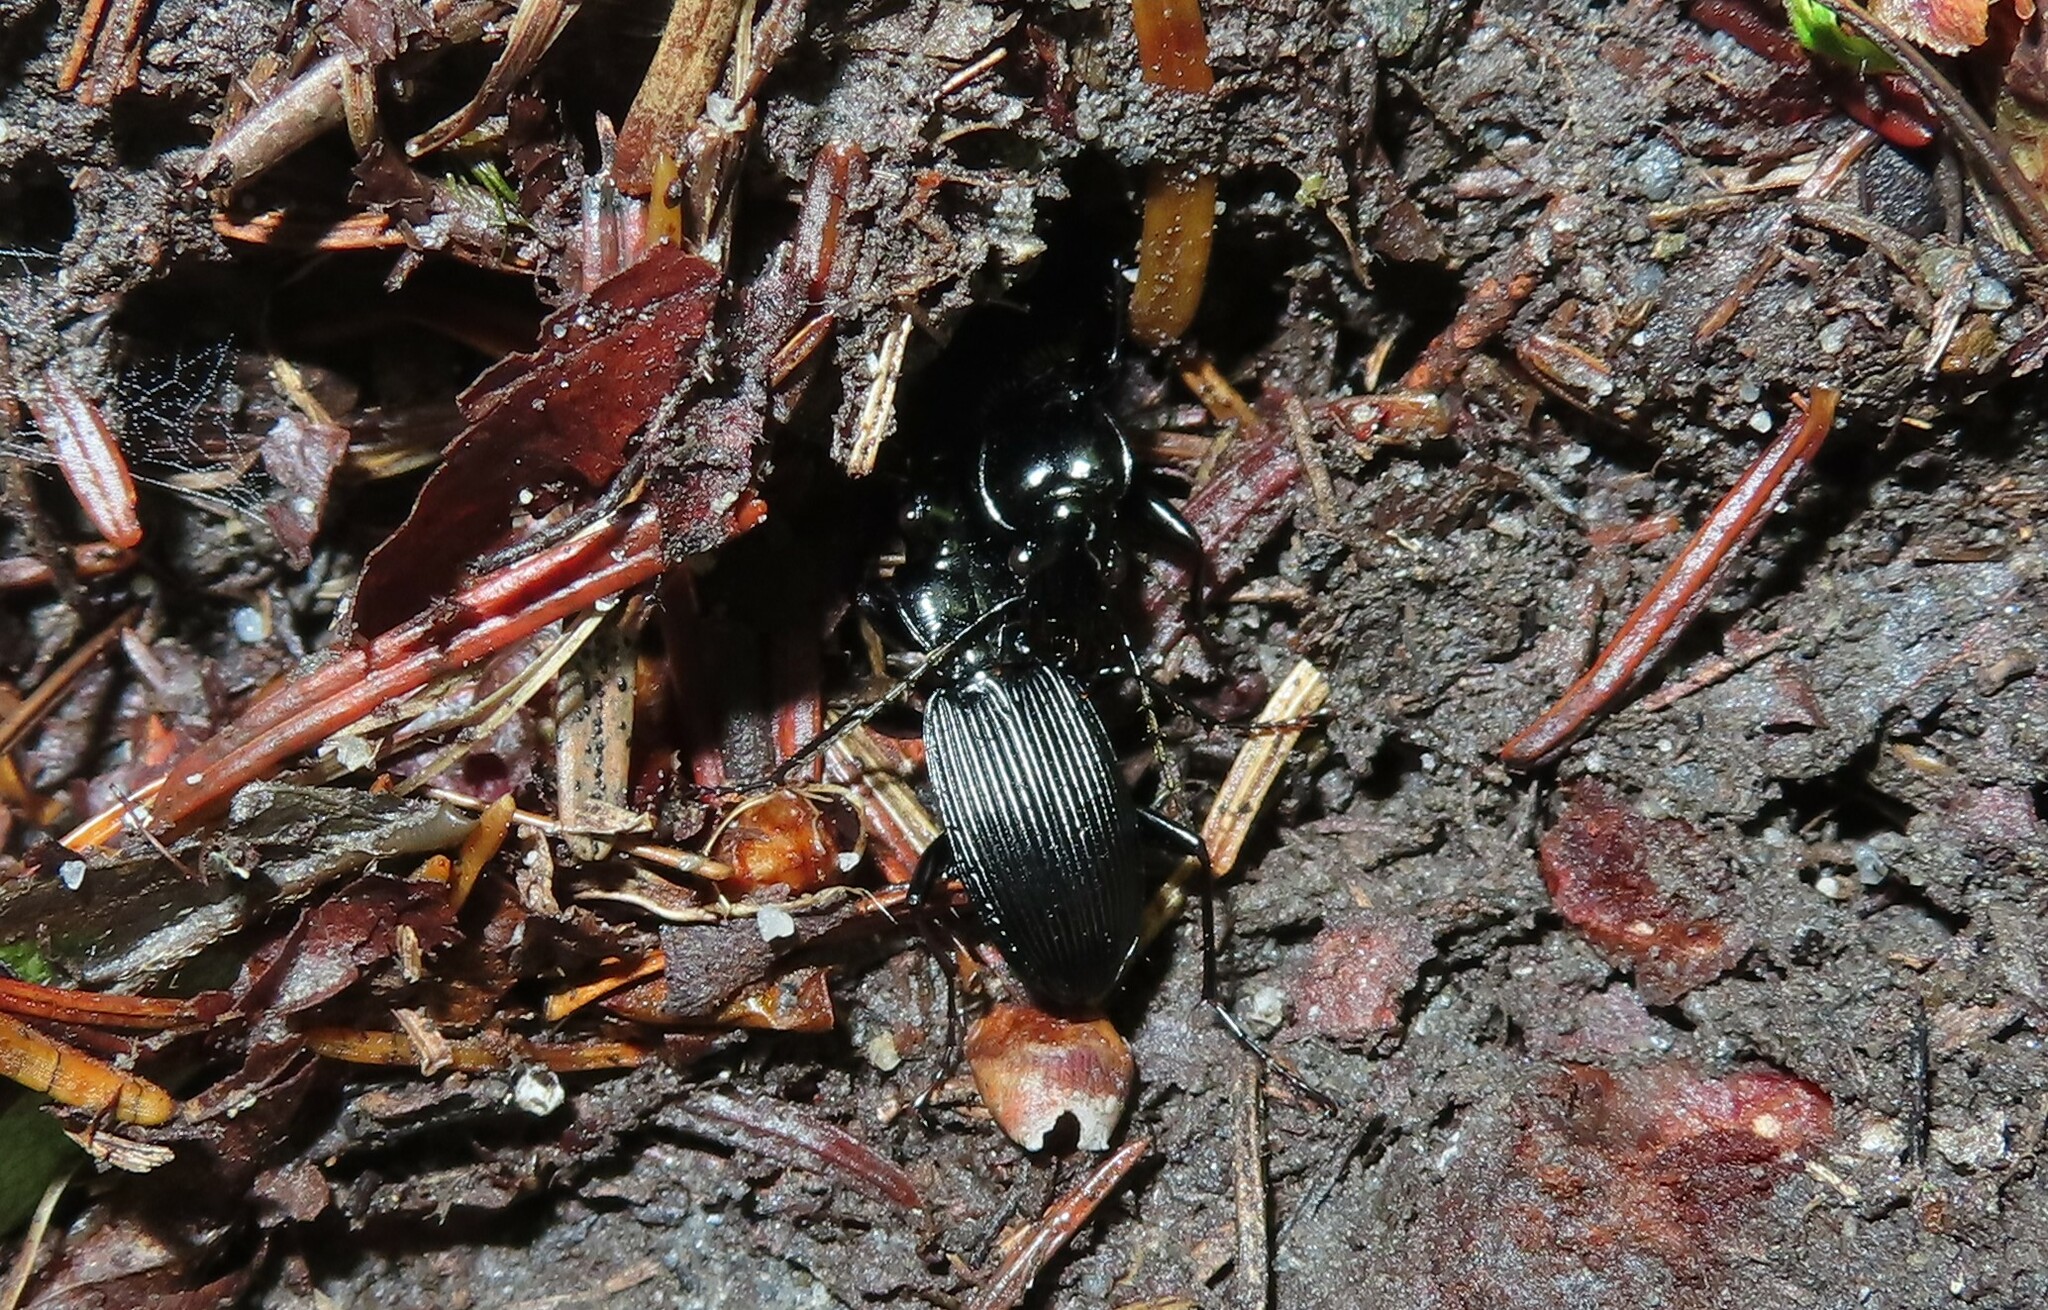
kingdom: Animalia
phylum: Arthropoda
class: Insecta
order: Coleoptera
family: Carabidae
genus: Pterostichus
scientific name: Pterostichus lachrymosus
